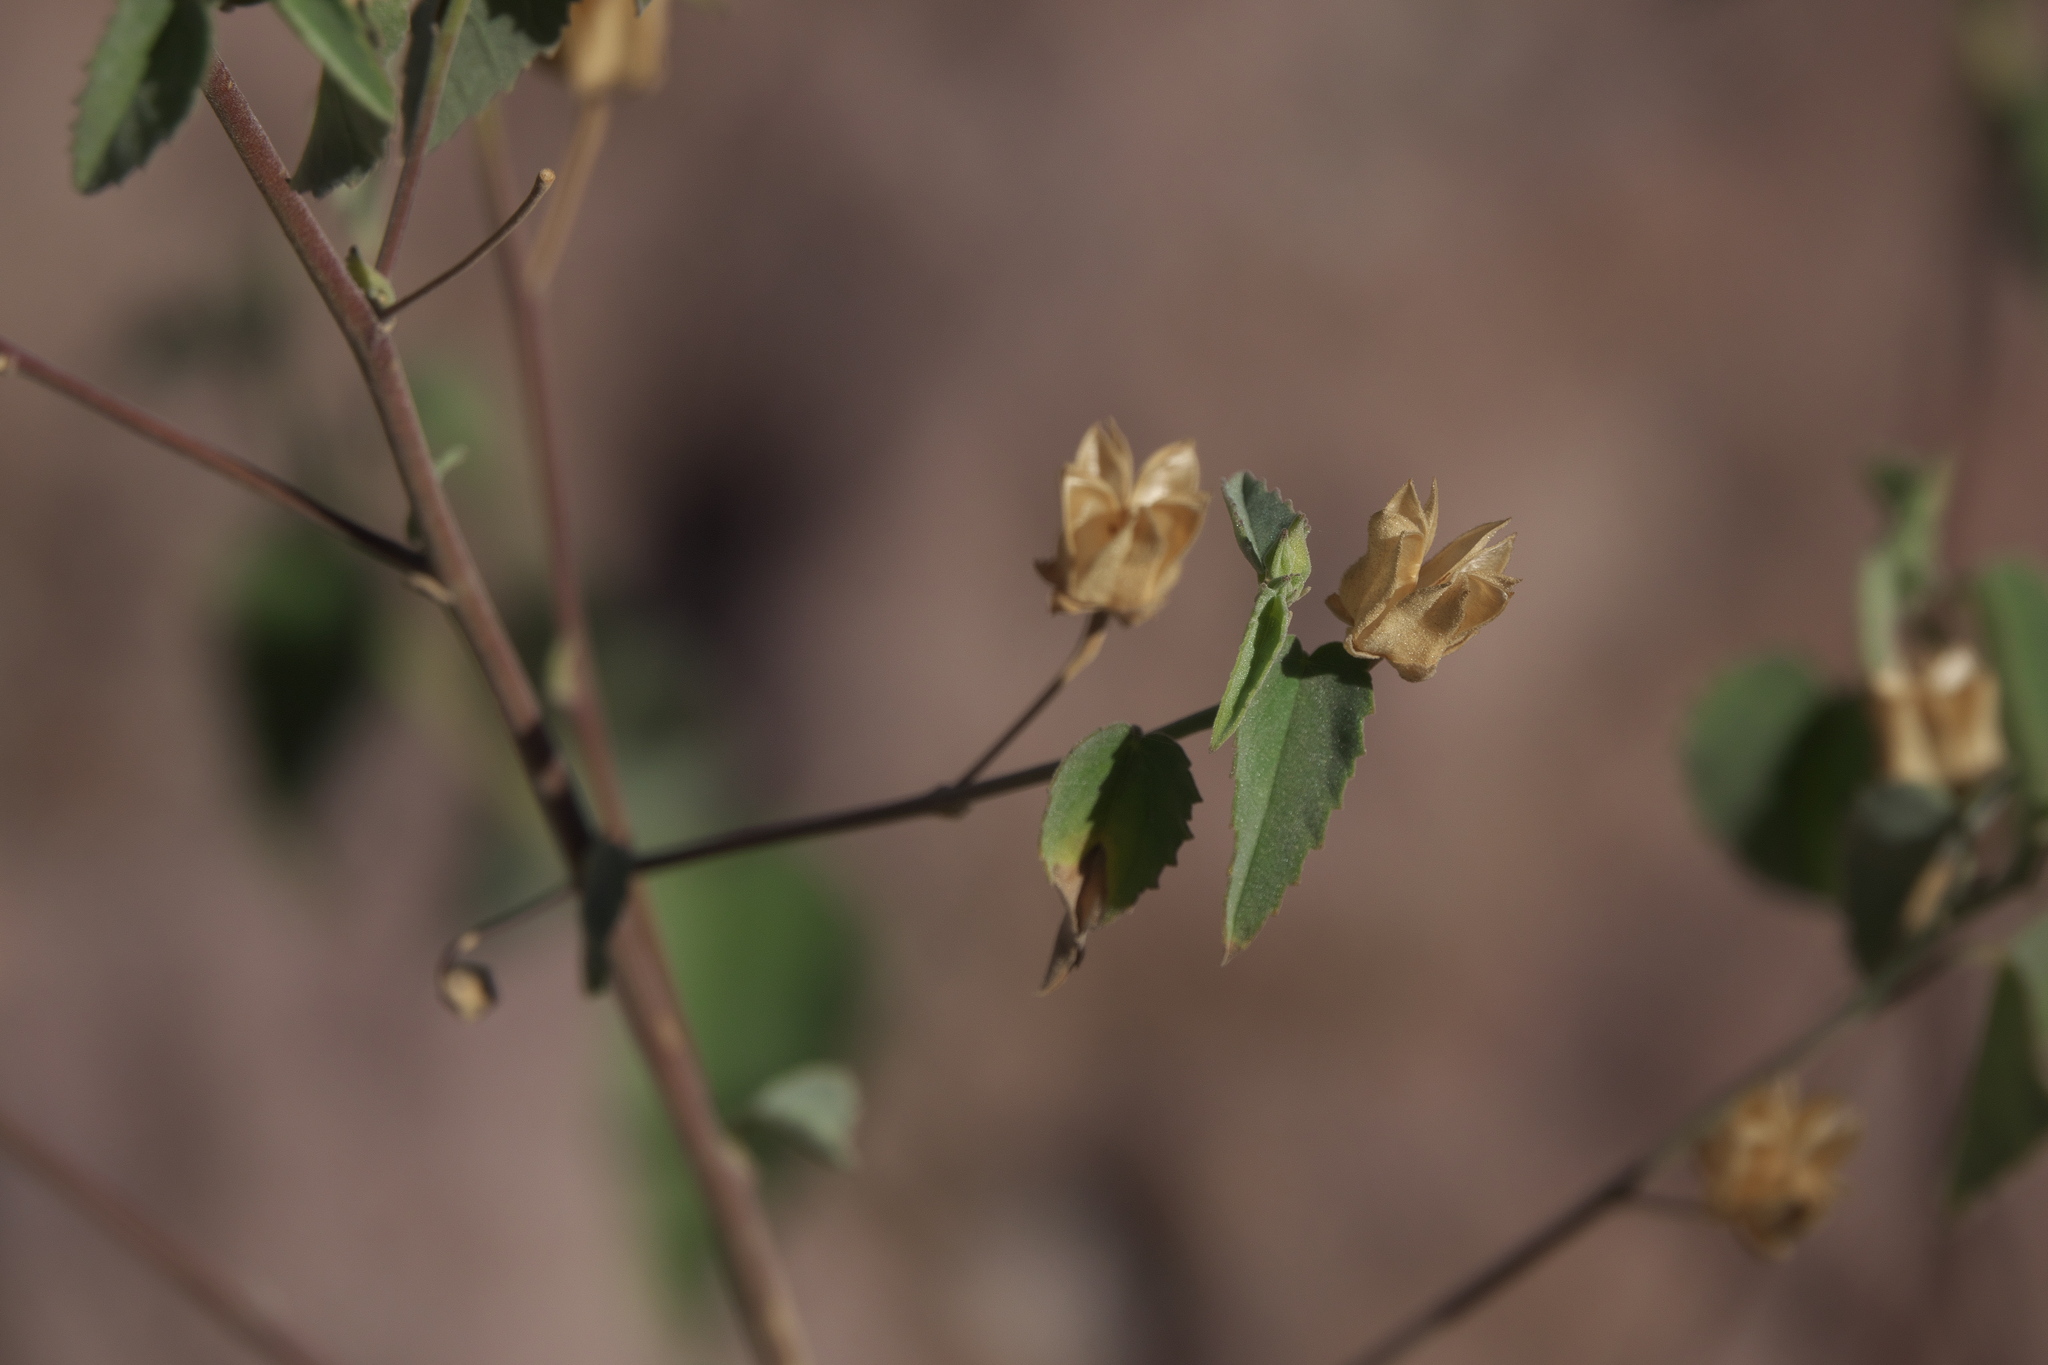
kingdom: Plantae
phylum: Tracheophyta
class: Magnoliopsida
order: Malvales
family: Malvaceae
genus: Abutilon
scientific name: Abutilon incanum
